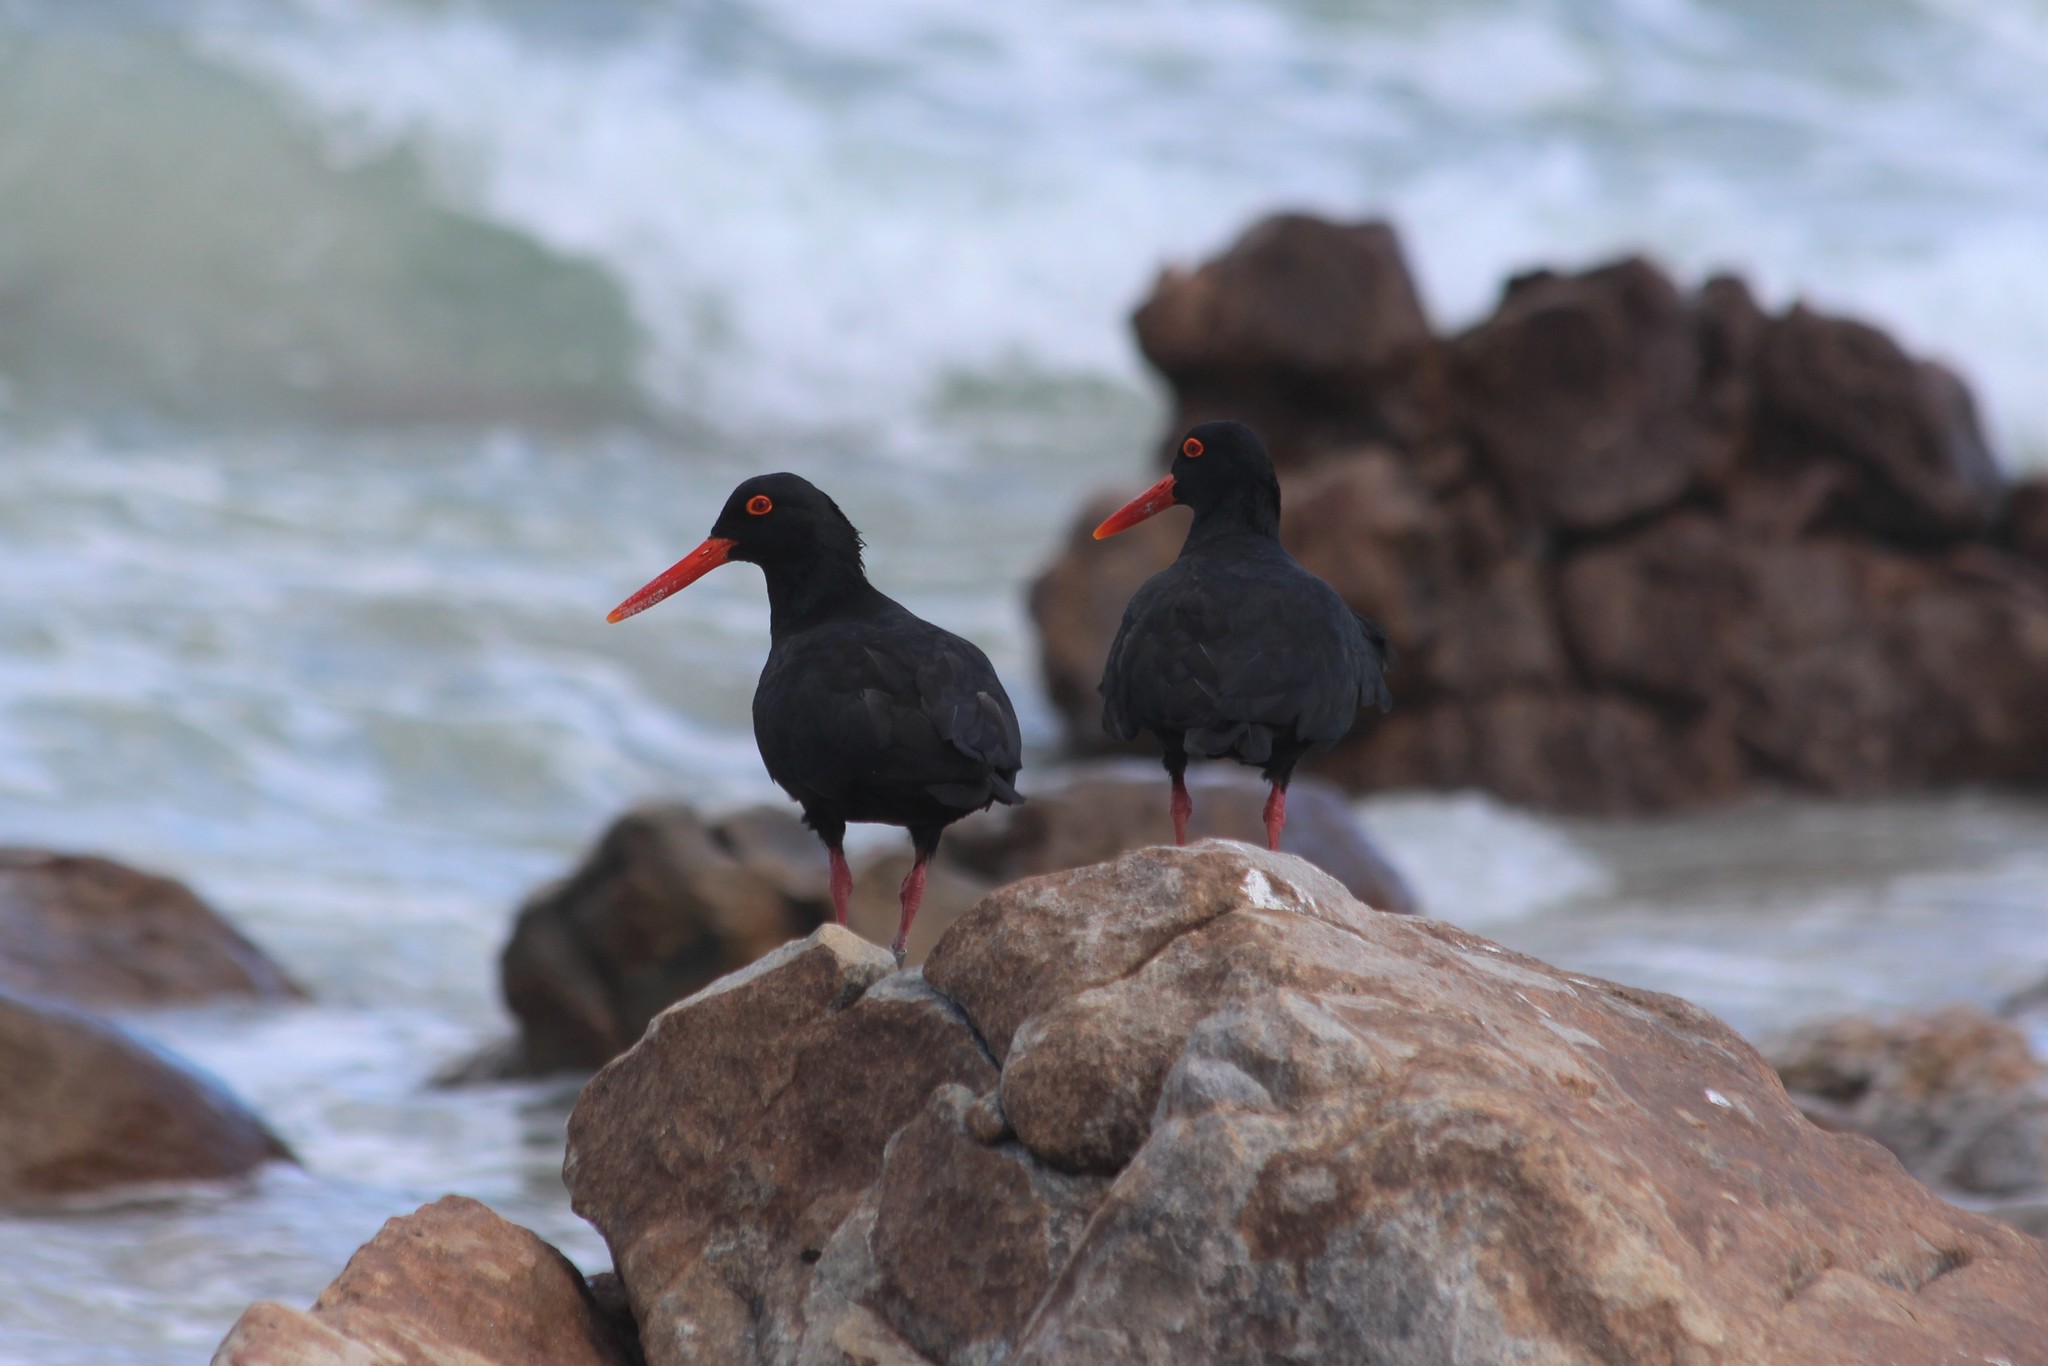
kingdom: Animalia
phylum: Chordata
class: Aves
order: Charadriiformes
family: Haematopodidae
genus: Haematopus
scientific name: Haematopus moquini
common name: African oystercatcher
